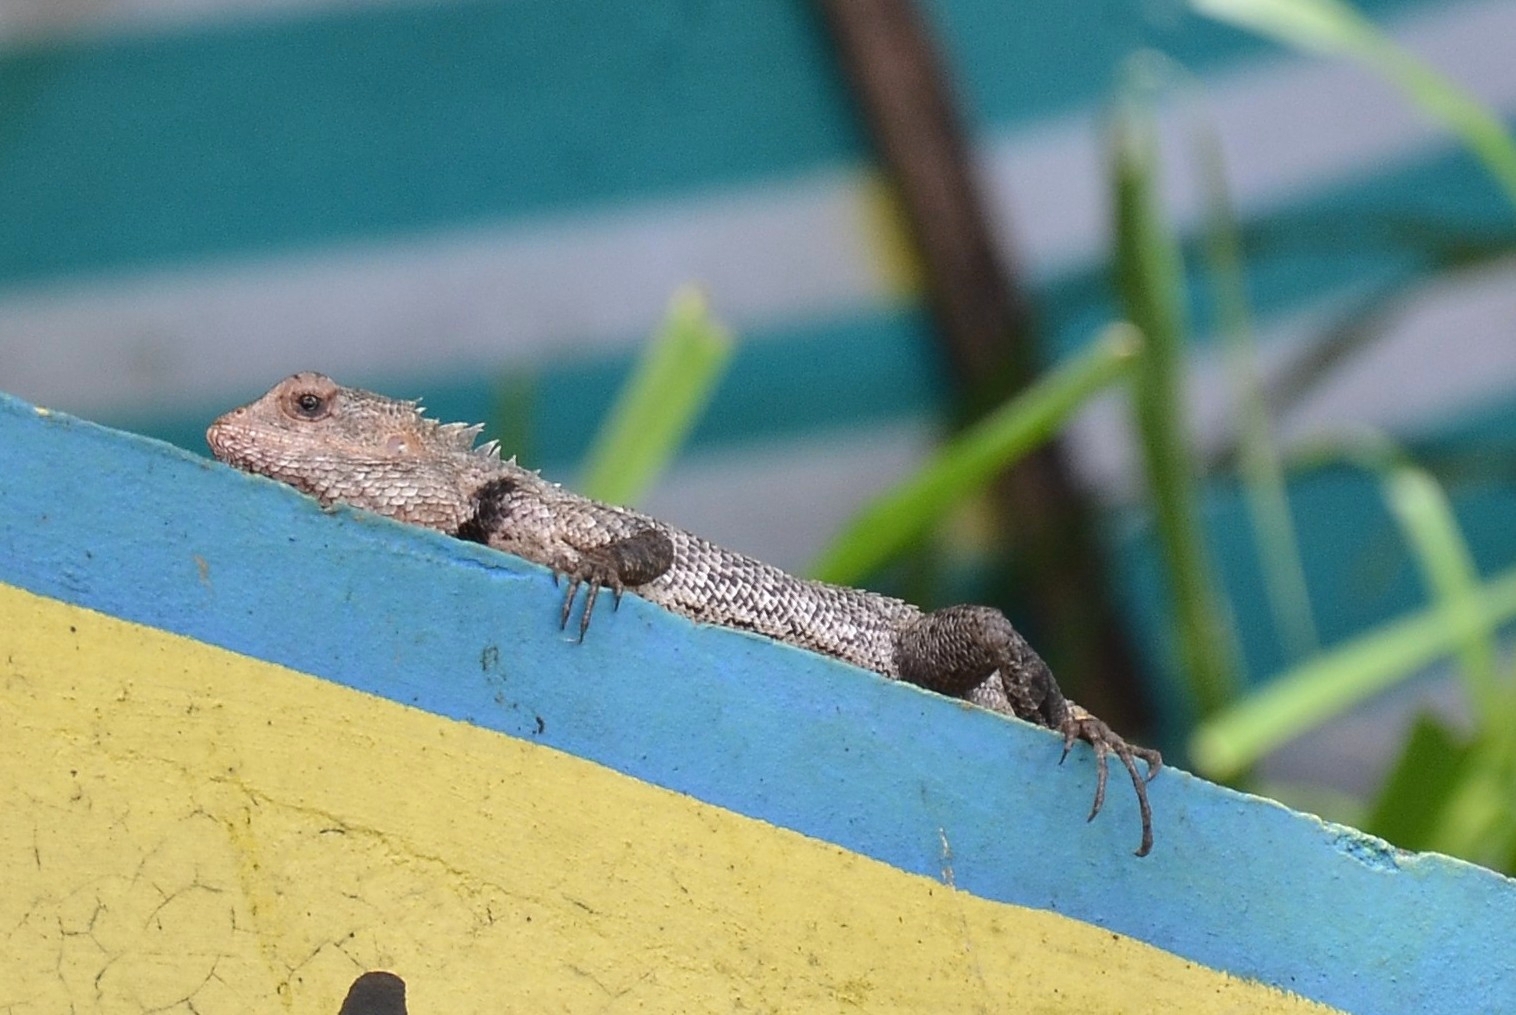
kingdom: Animalia
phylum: Chordata
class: Squamata
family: Agamidae
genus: Calotes
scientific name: Calotes versicolor
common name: Oriental garden lizard
